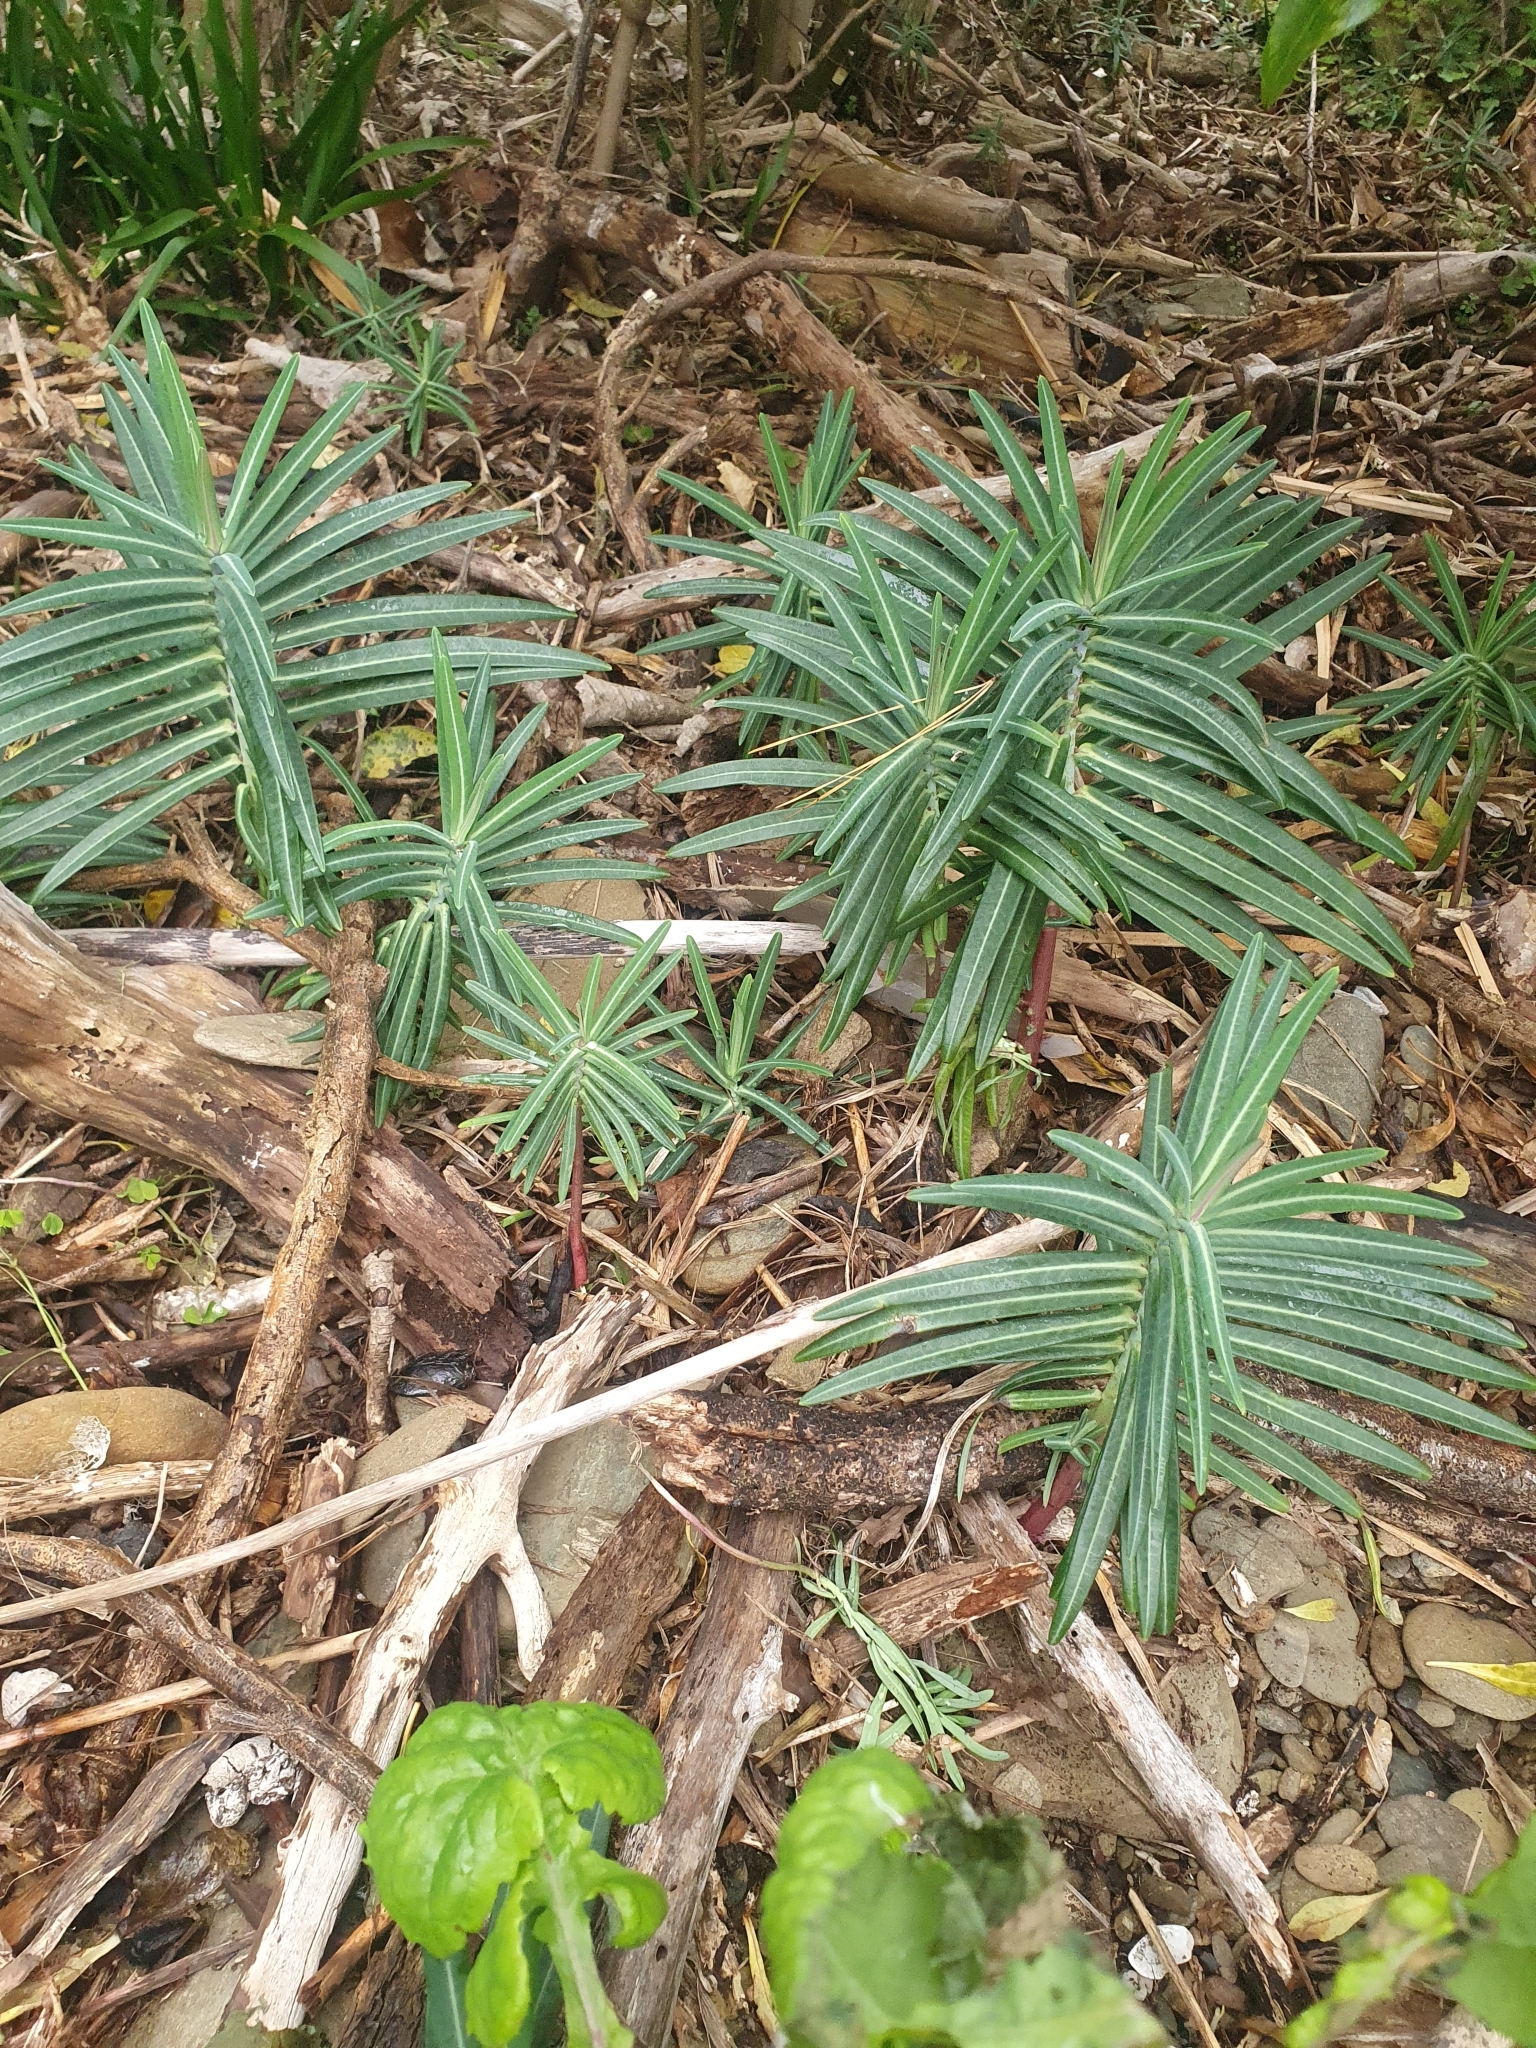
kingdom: Plantae
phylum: Tracheophyta
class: Magnoliopsida
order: Malpighiales
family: Euphorbiaceae
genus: Euphorbia
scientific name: Euphorbia lathyris
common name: Caper spurge
